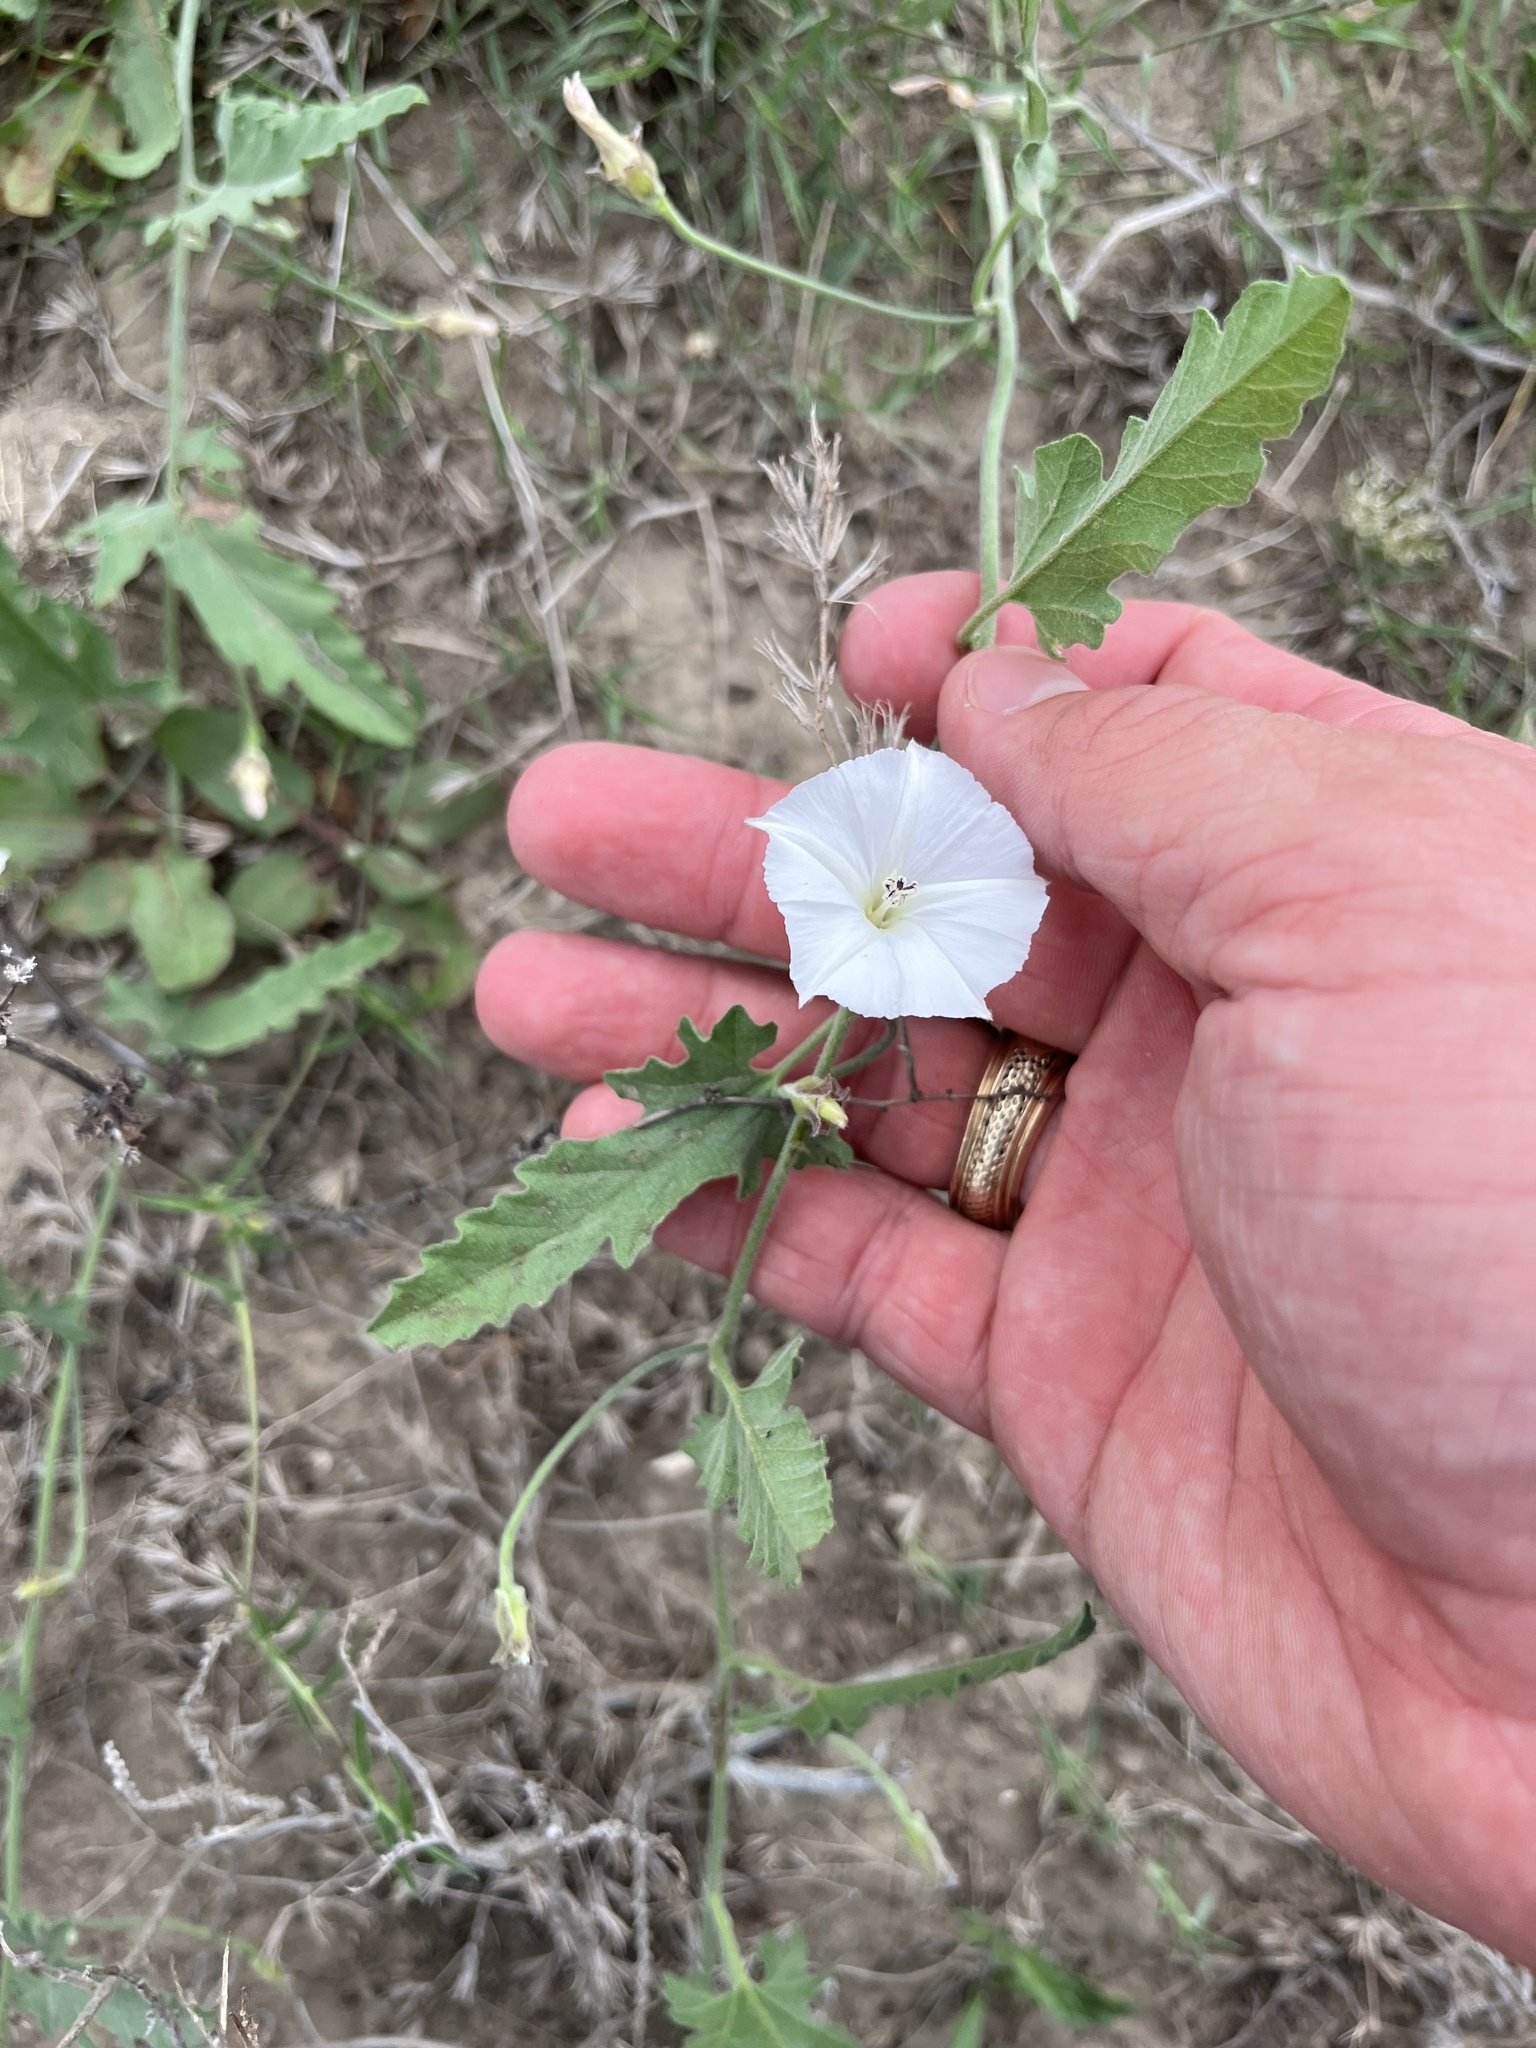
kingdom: Plantae
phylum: Tracheophyta
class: Magnoliopsida
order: Solanales
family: Convolvulaceae
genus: Convolvulus
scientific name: Convolvulus equitans
